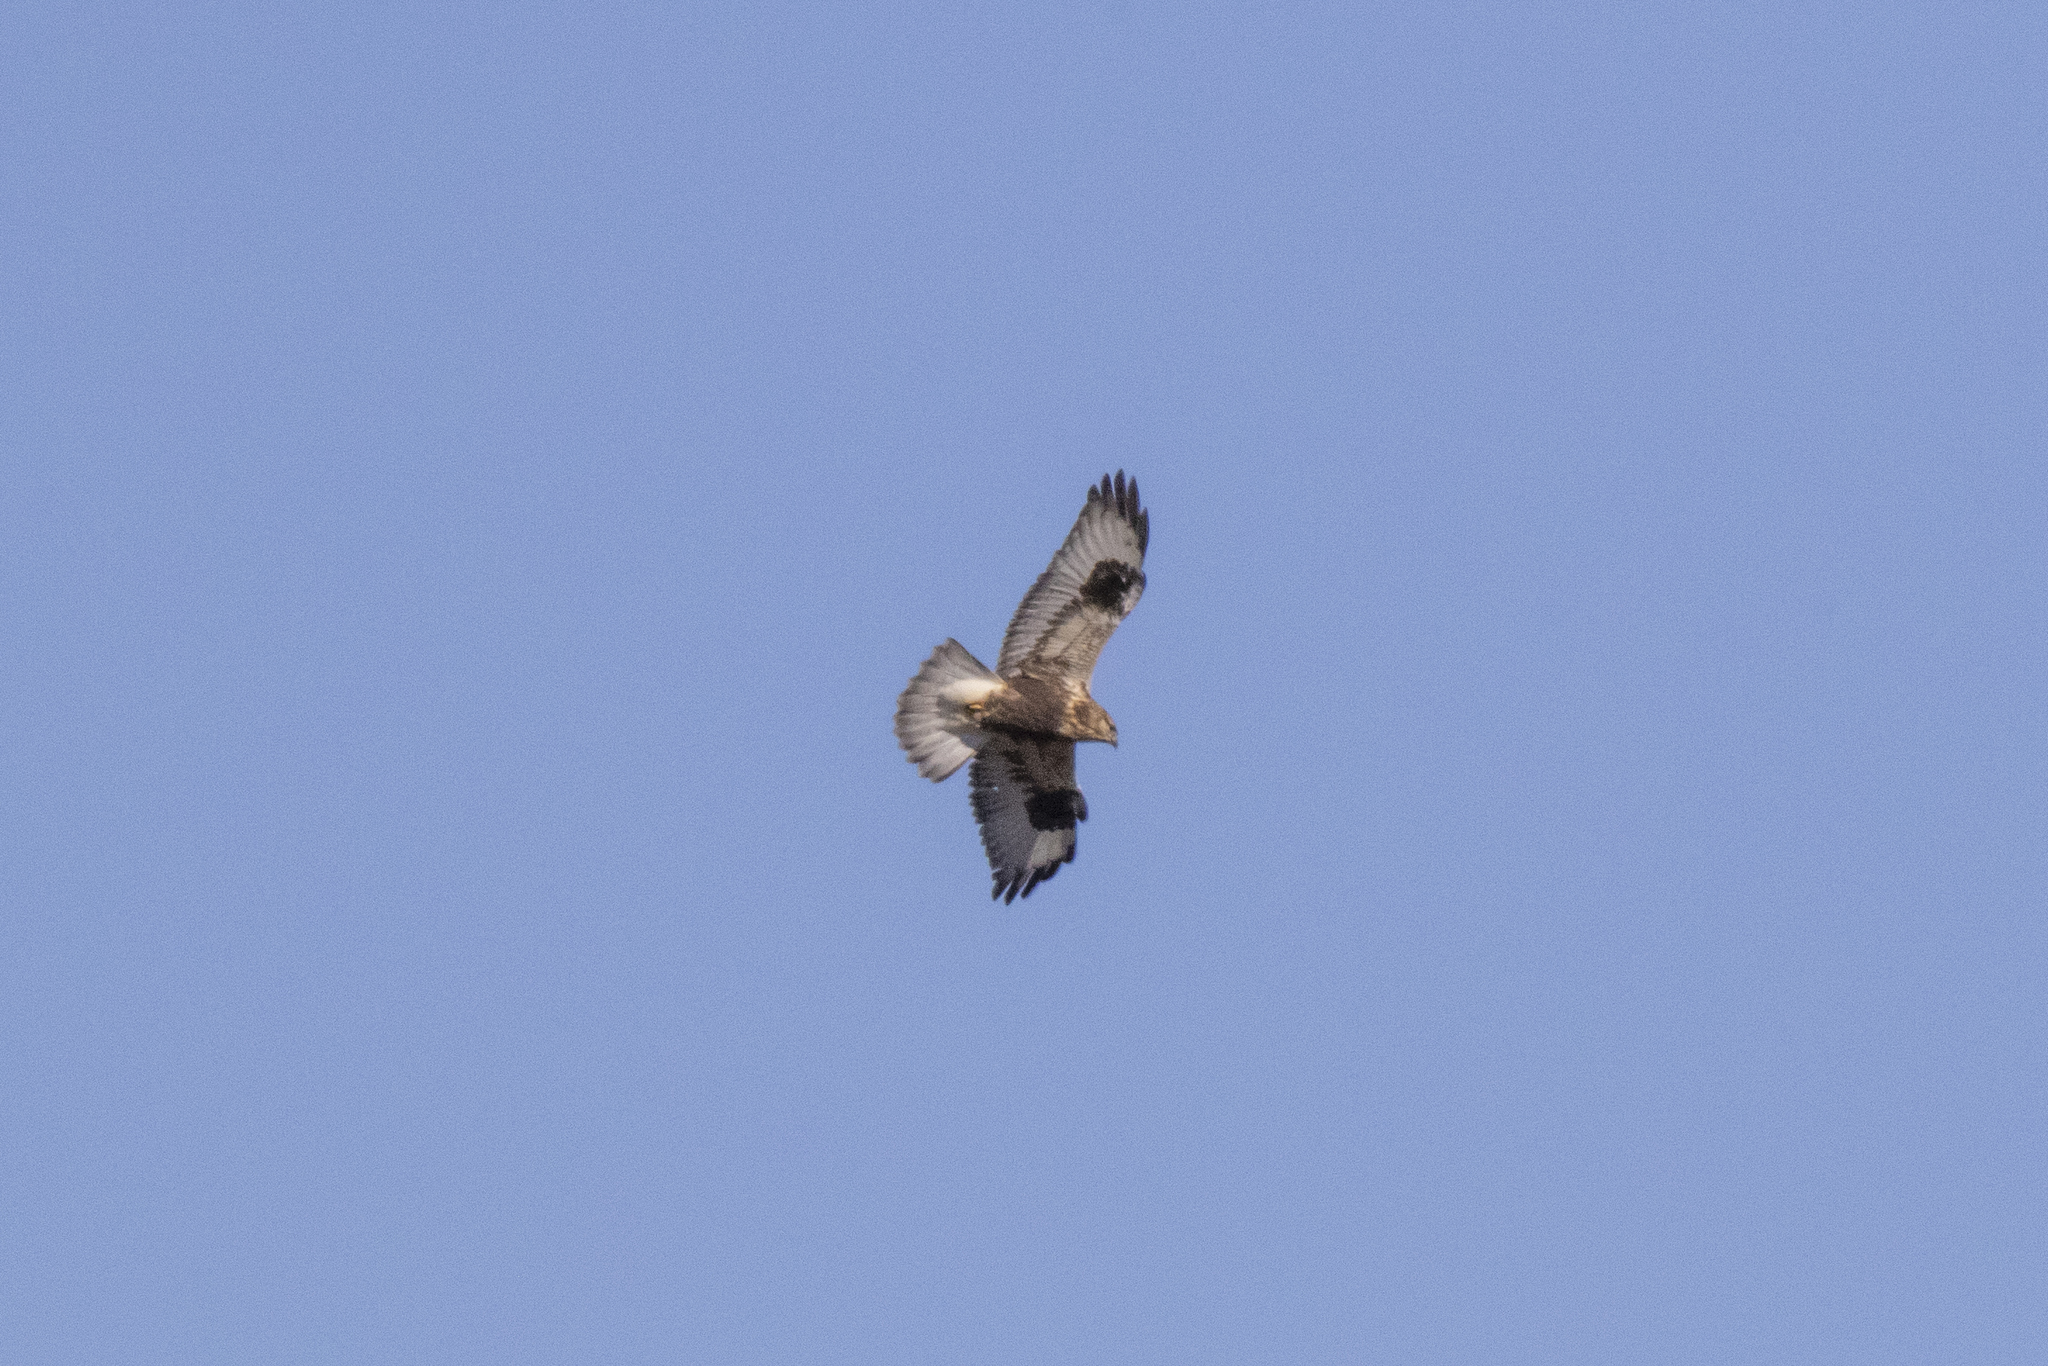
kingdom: Animalia
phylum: Chordata
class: Aves
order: Accipitriformes
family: Accipitridae
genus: Buteo
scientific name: Buteo lagopus
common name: Rough-legged buzzard
